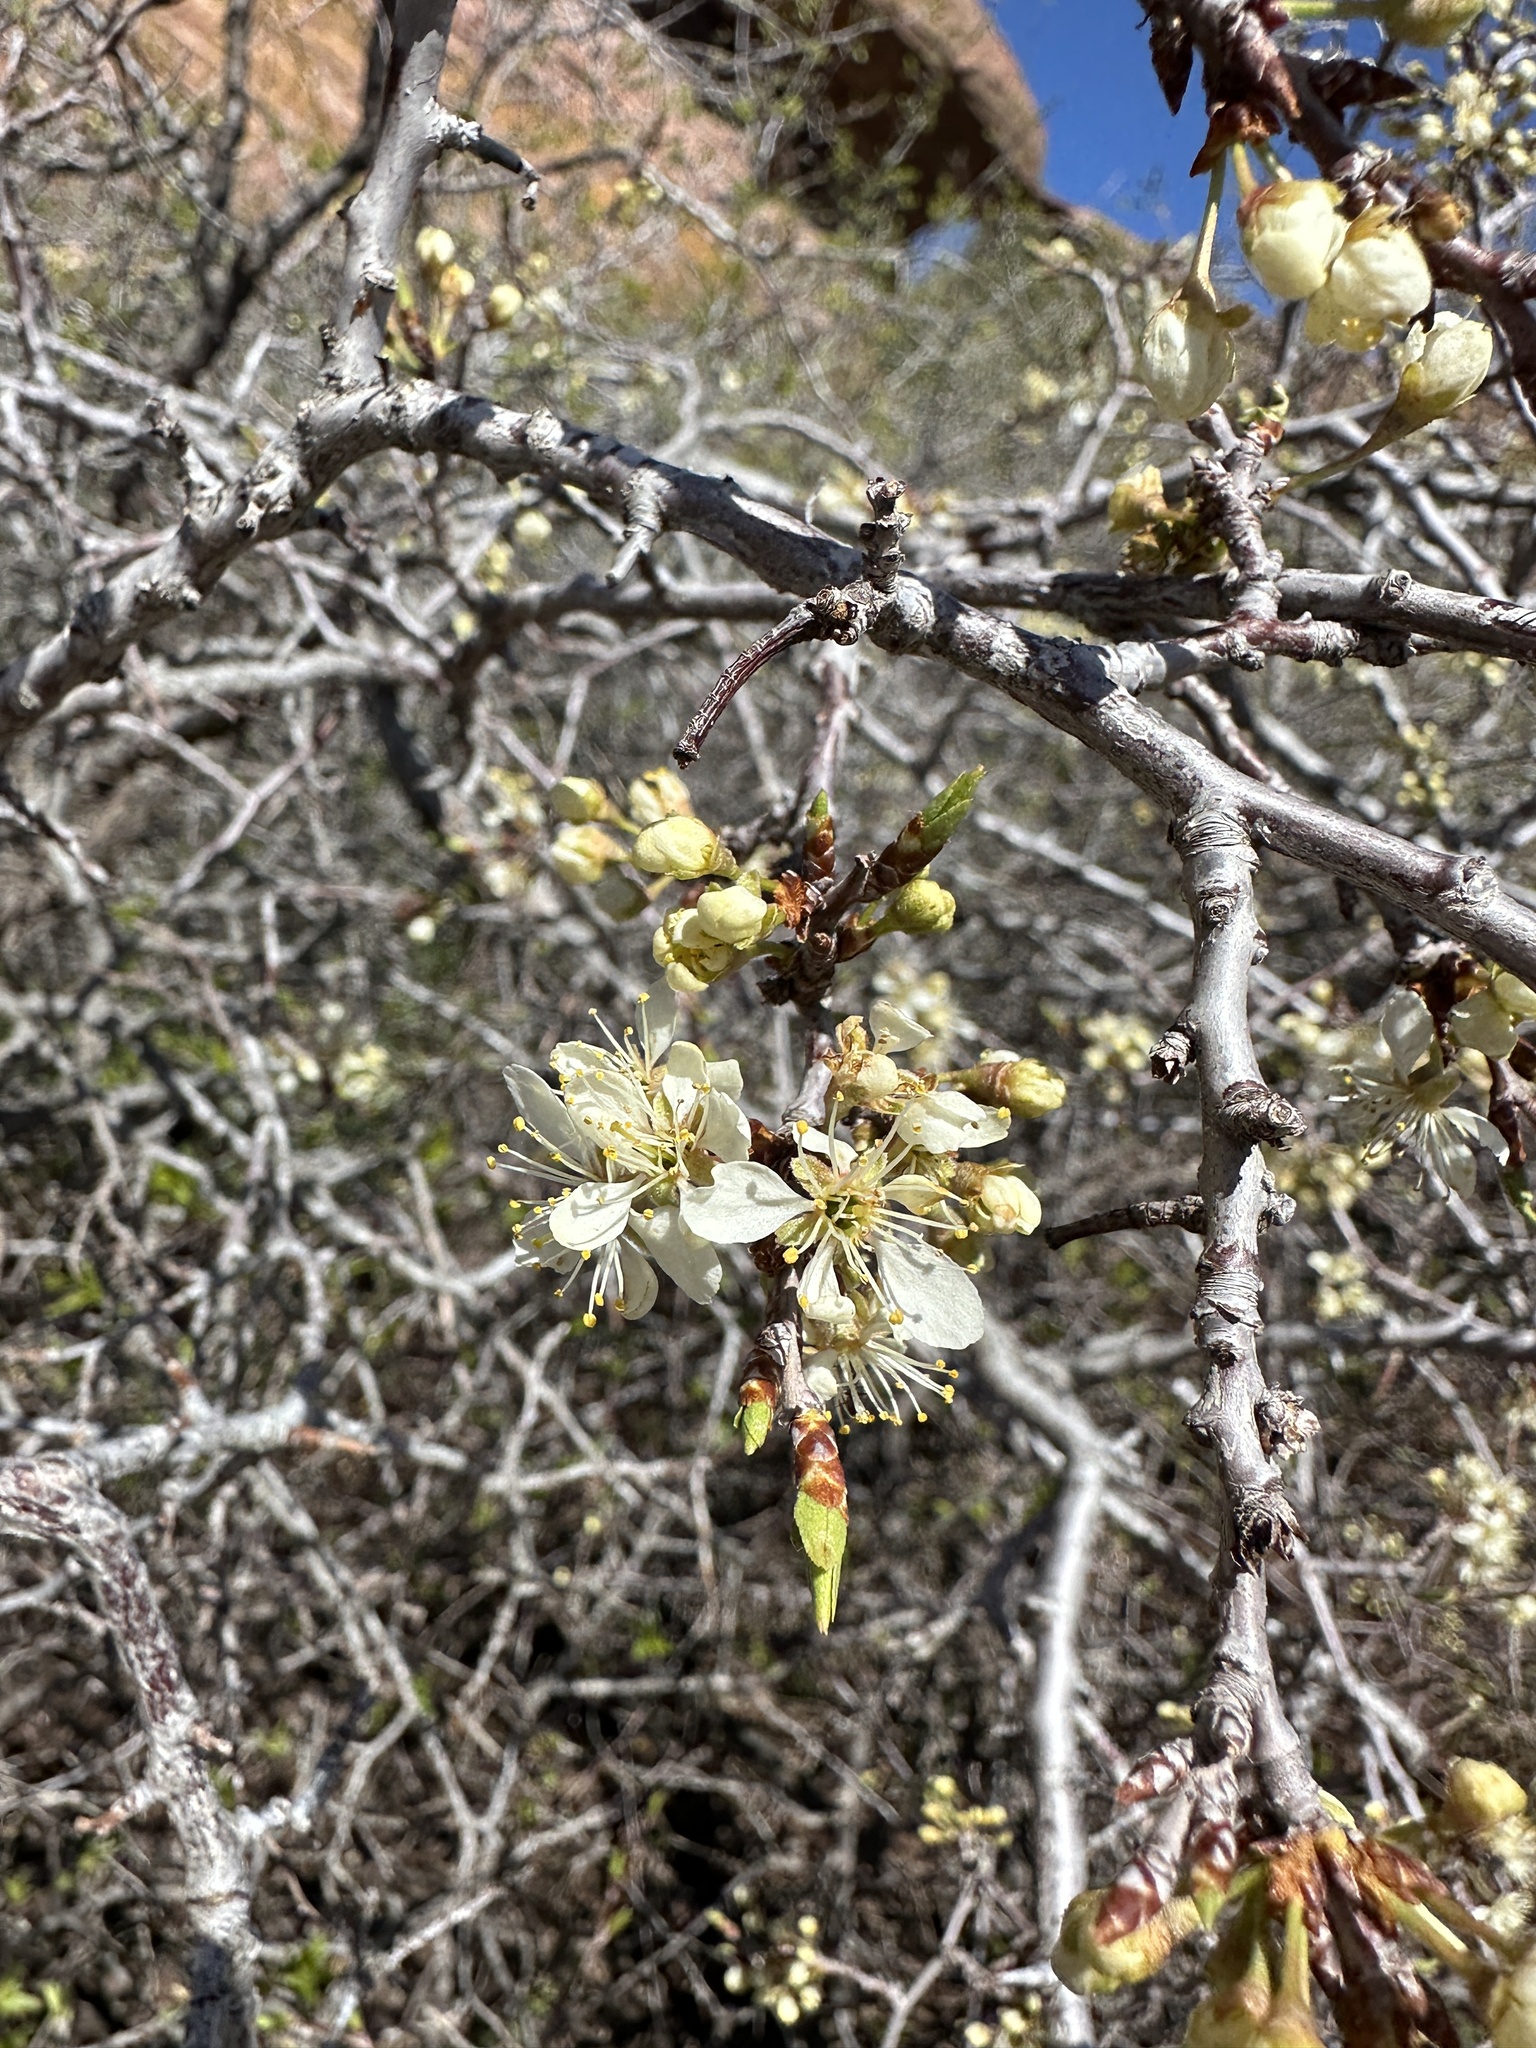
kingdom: Plantae
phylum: Tracheophyta
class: Magnoliopsida
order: Rosales
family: Rosaceae
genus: Prunus
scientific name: Prunus americana
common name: American plum
